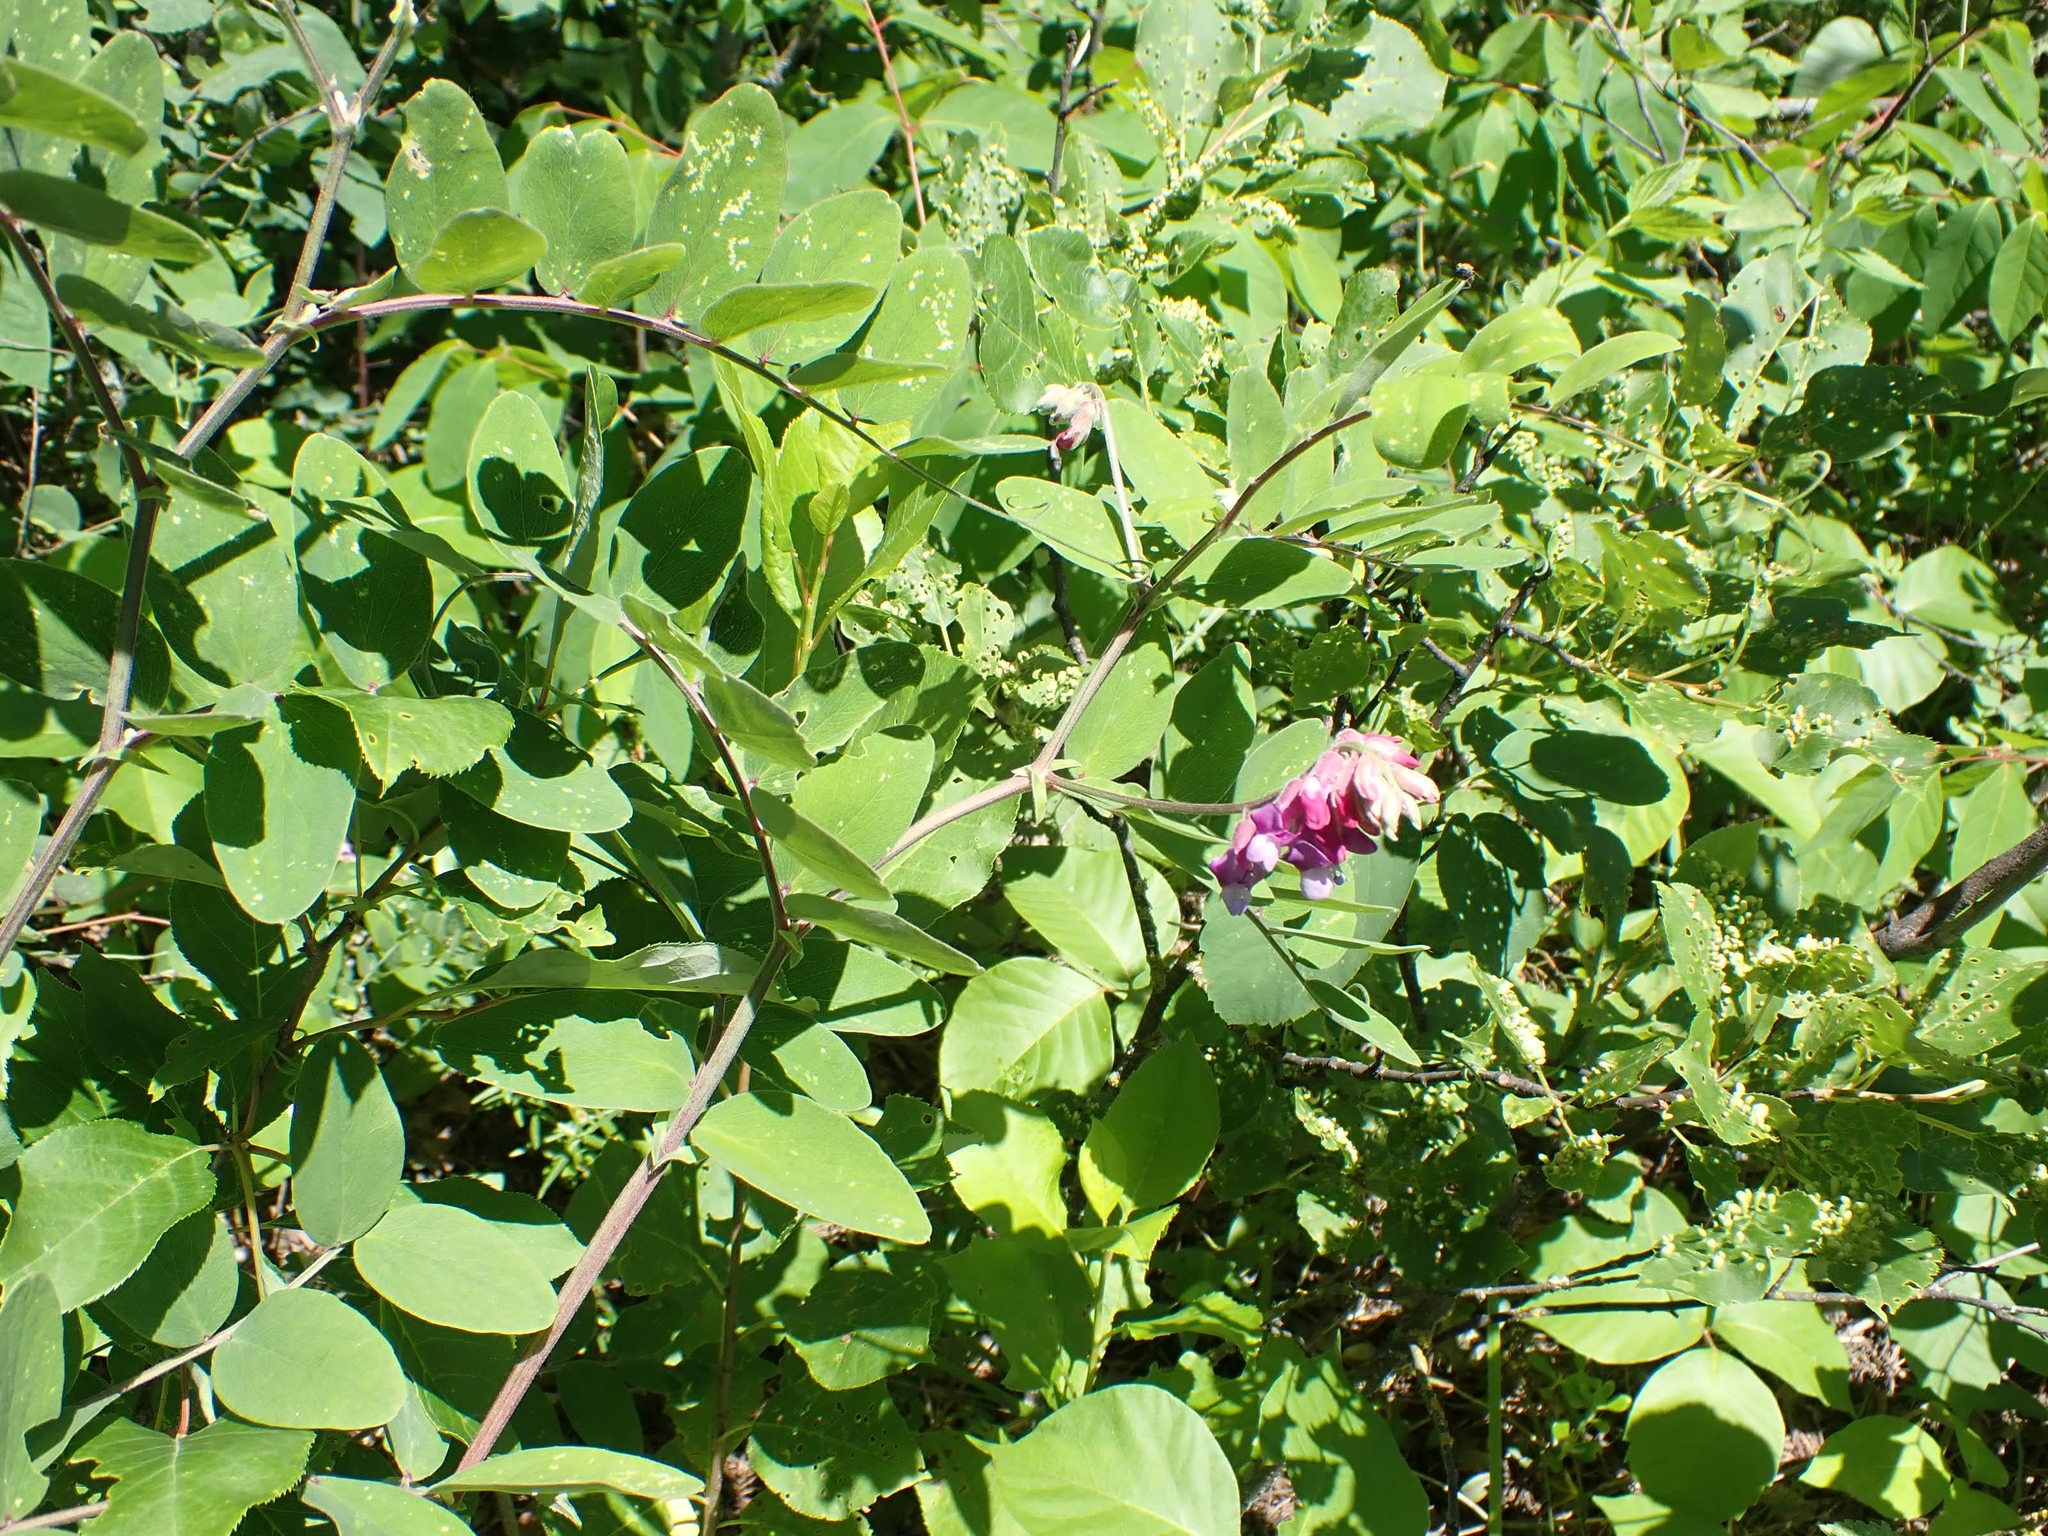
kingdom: Plantae
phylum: Tracheophyta
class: Magnoliopsida
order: Fabales
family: Fabaceae
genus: Lathyrus
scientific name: Lathyrus venosus
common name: Forest-pea
